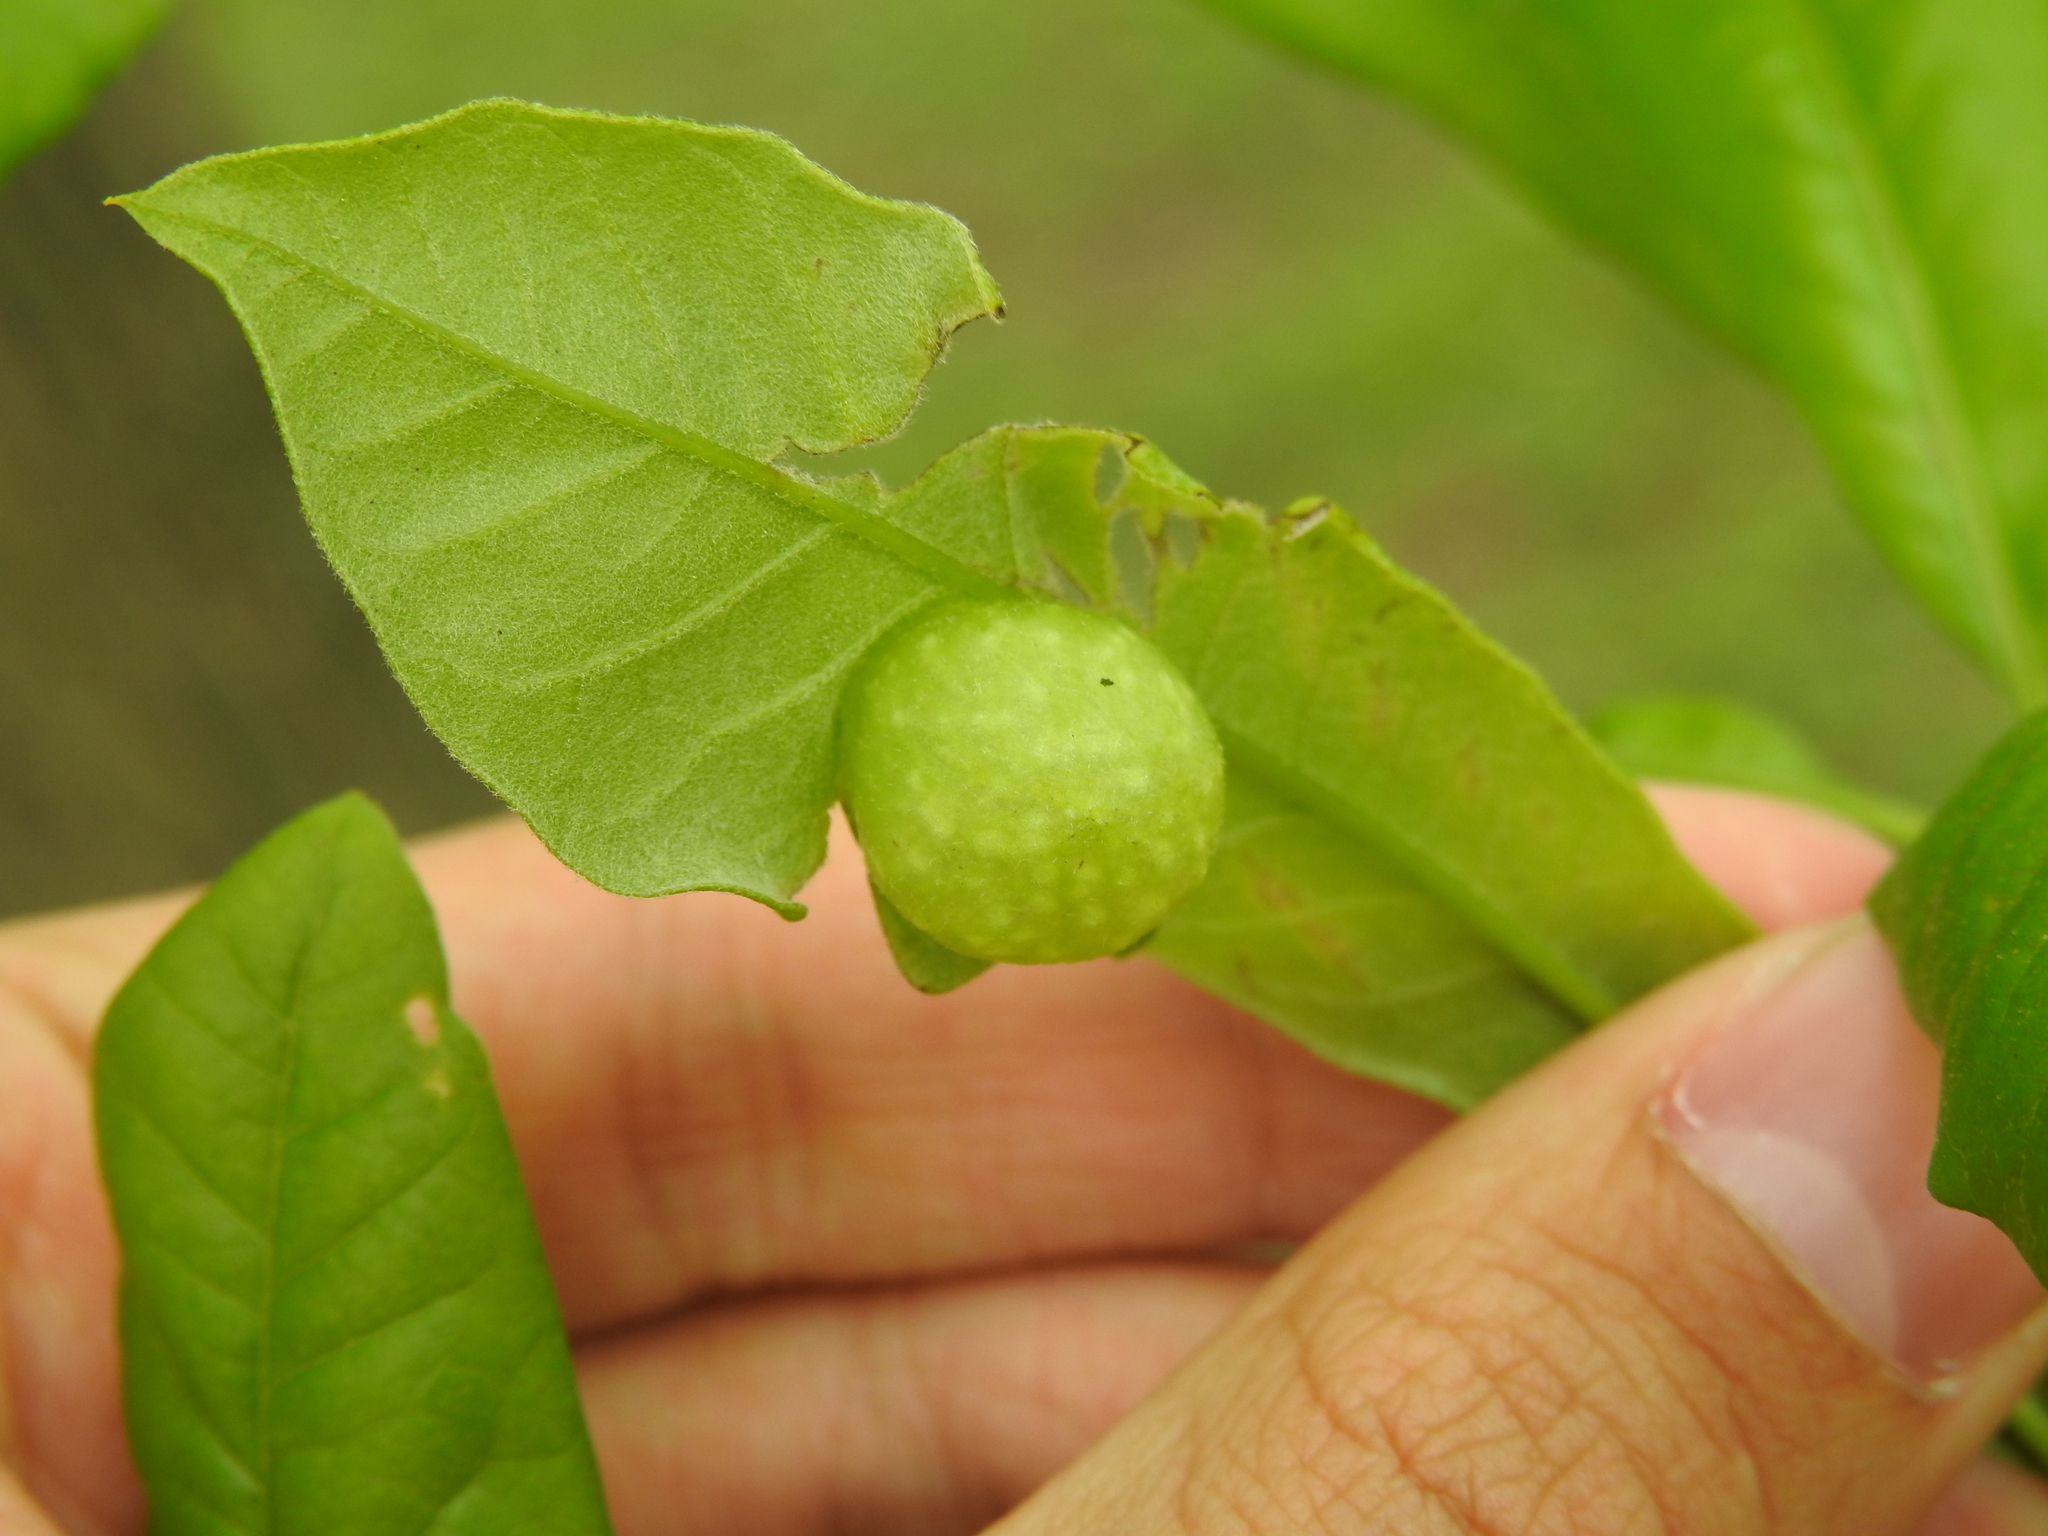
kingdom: Animalia
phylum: Arthropoda
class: Insecta
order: Hymenoptera
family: Cynipidae
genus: Dryocosmus
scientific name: Dryocosmus quercuspalustris
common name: Succulent oak gall wasp
